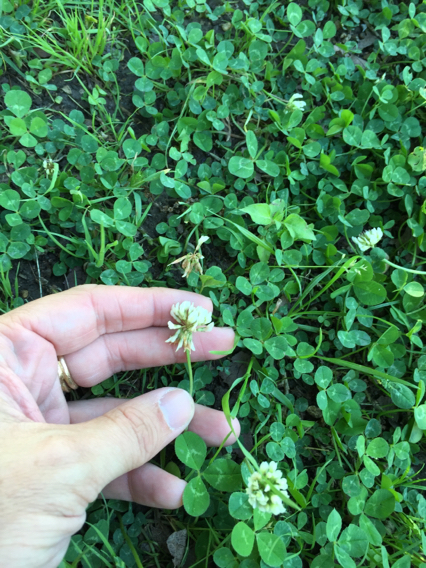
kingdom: Plantae
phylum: Tracheophyta
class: Magnoliopsida
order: Fabales
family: Fabaceae
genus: Trifolium
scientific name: Trifolium repens
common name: White clover
